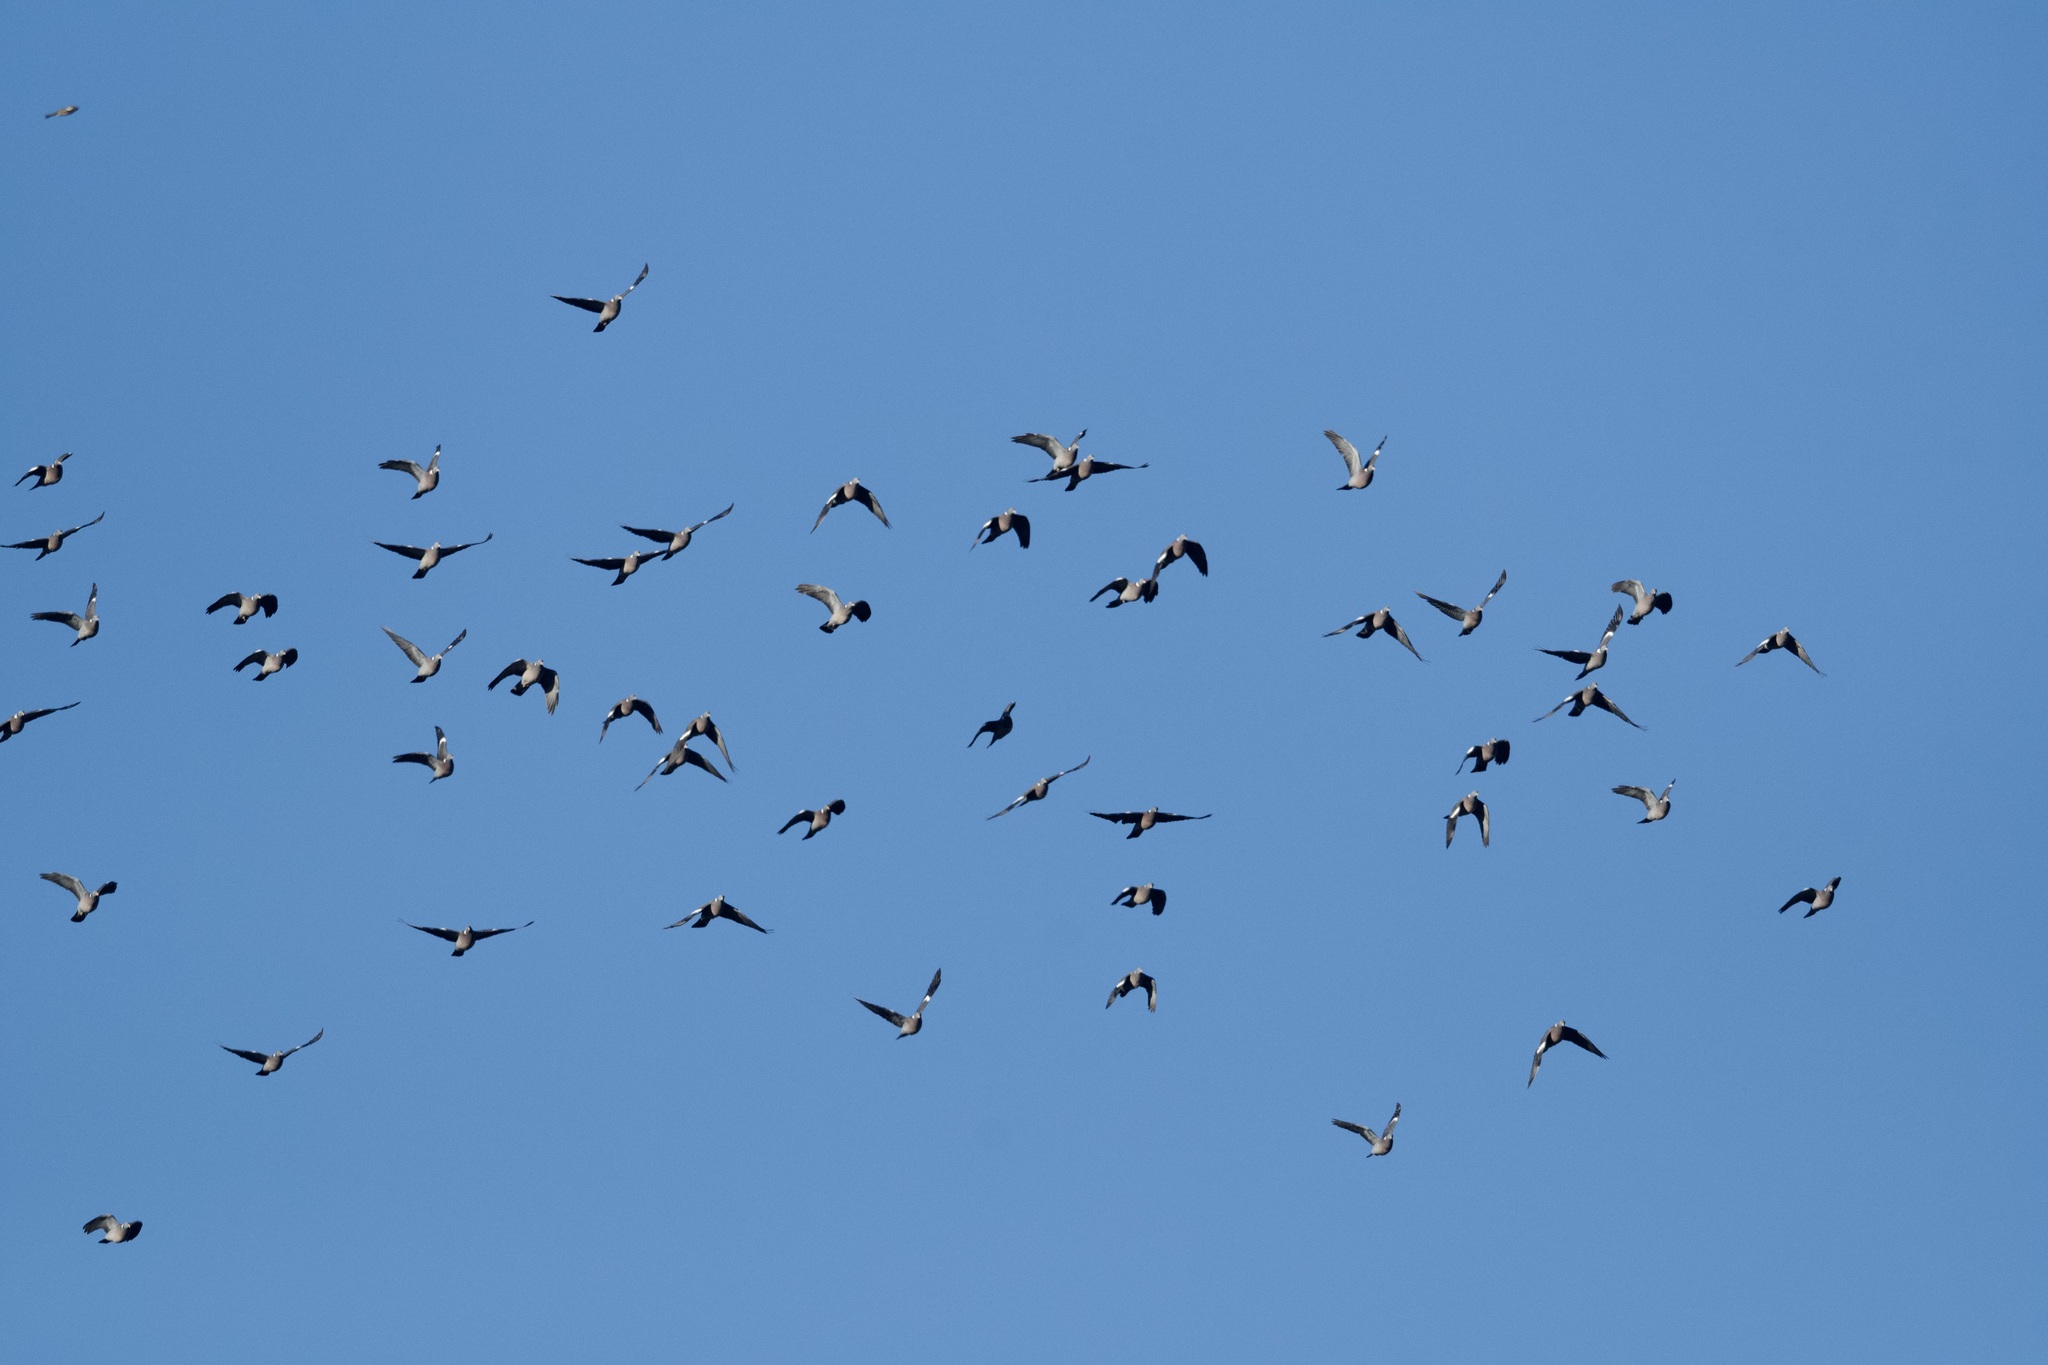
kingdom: Animalia
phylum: Chordata
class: Aves
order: Columbiformes
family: Columbidae
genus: Columba
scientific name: Columba palumbus
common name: Common wood pigeon
